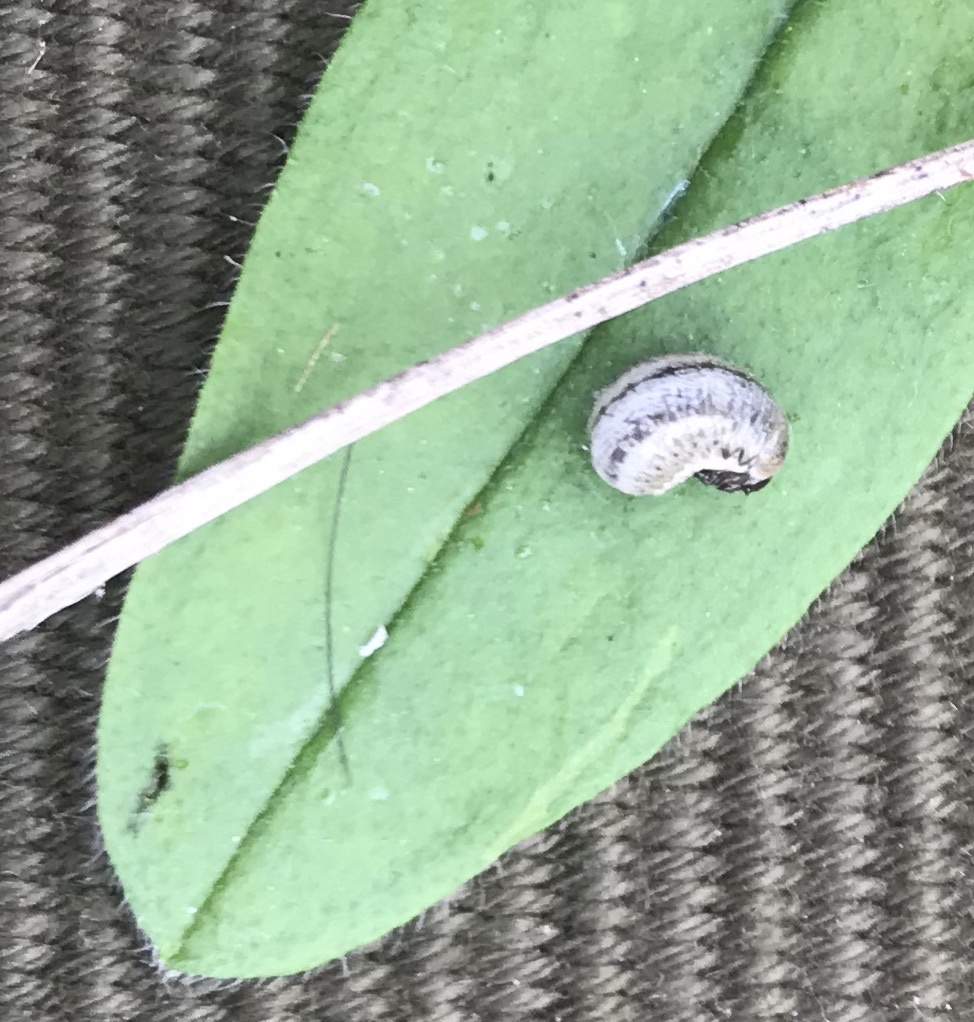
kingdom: Animalia
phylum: Arthropoda
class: Insecta
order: Coleoptera
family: Chrysomelidae
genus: Chrysolina
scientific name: Chrysolina americana
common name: Rosemary beetle
